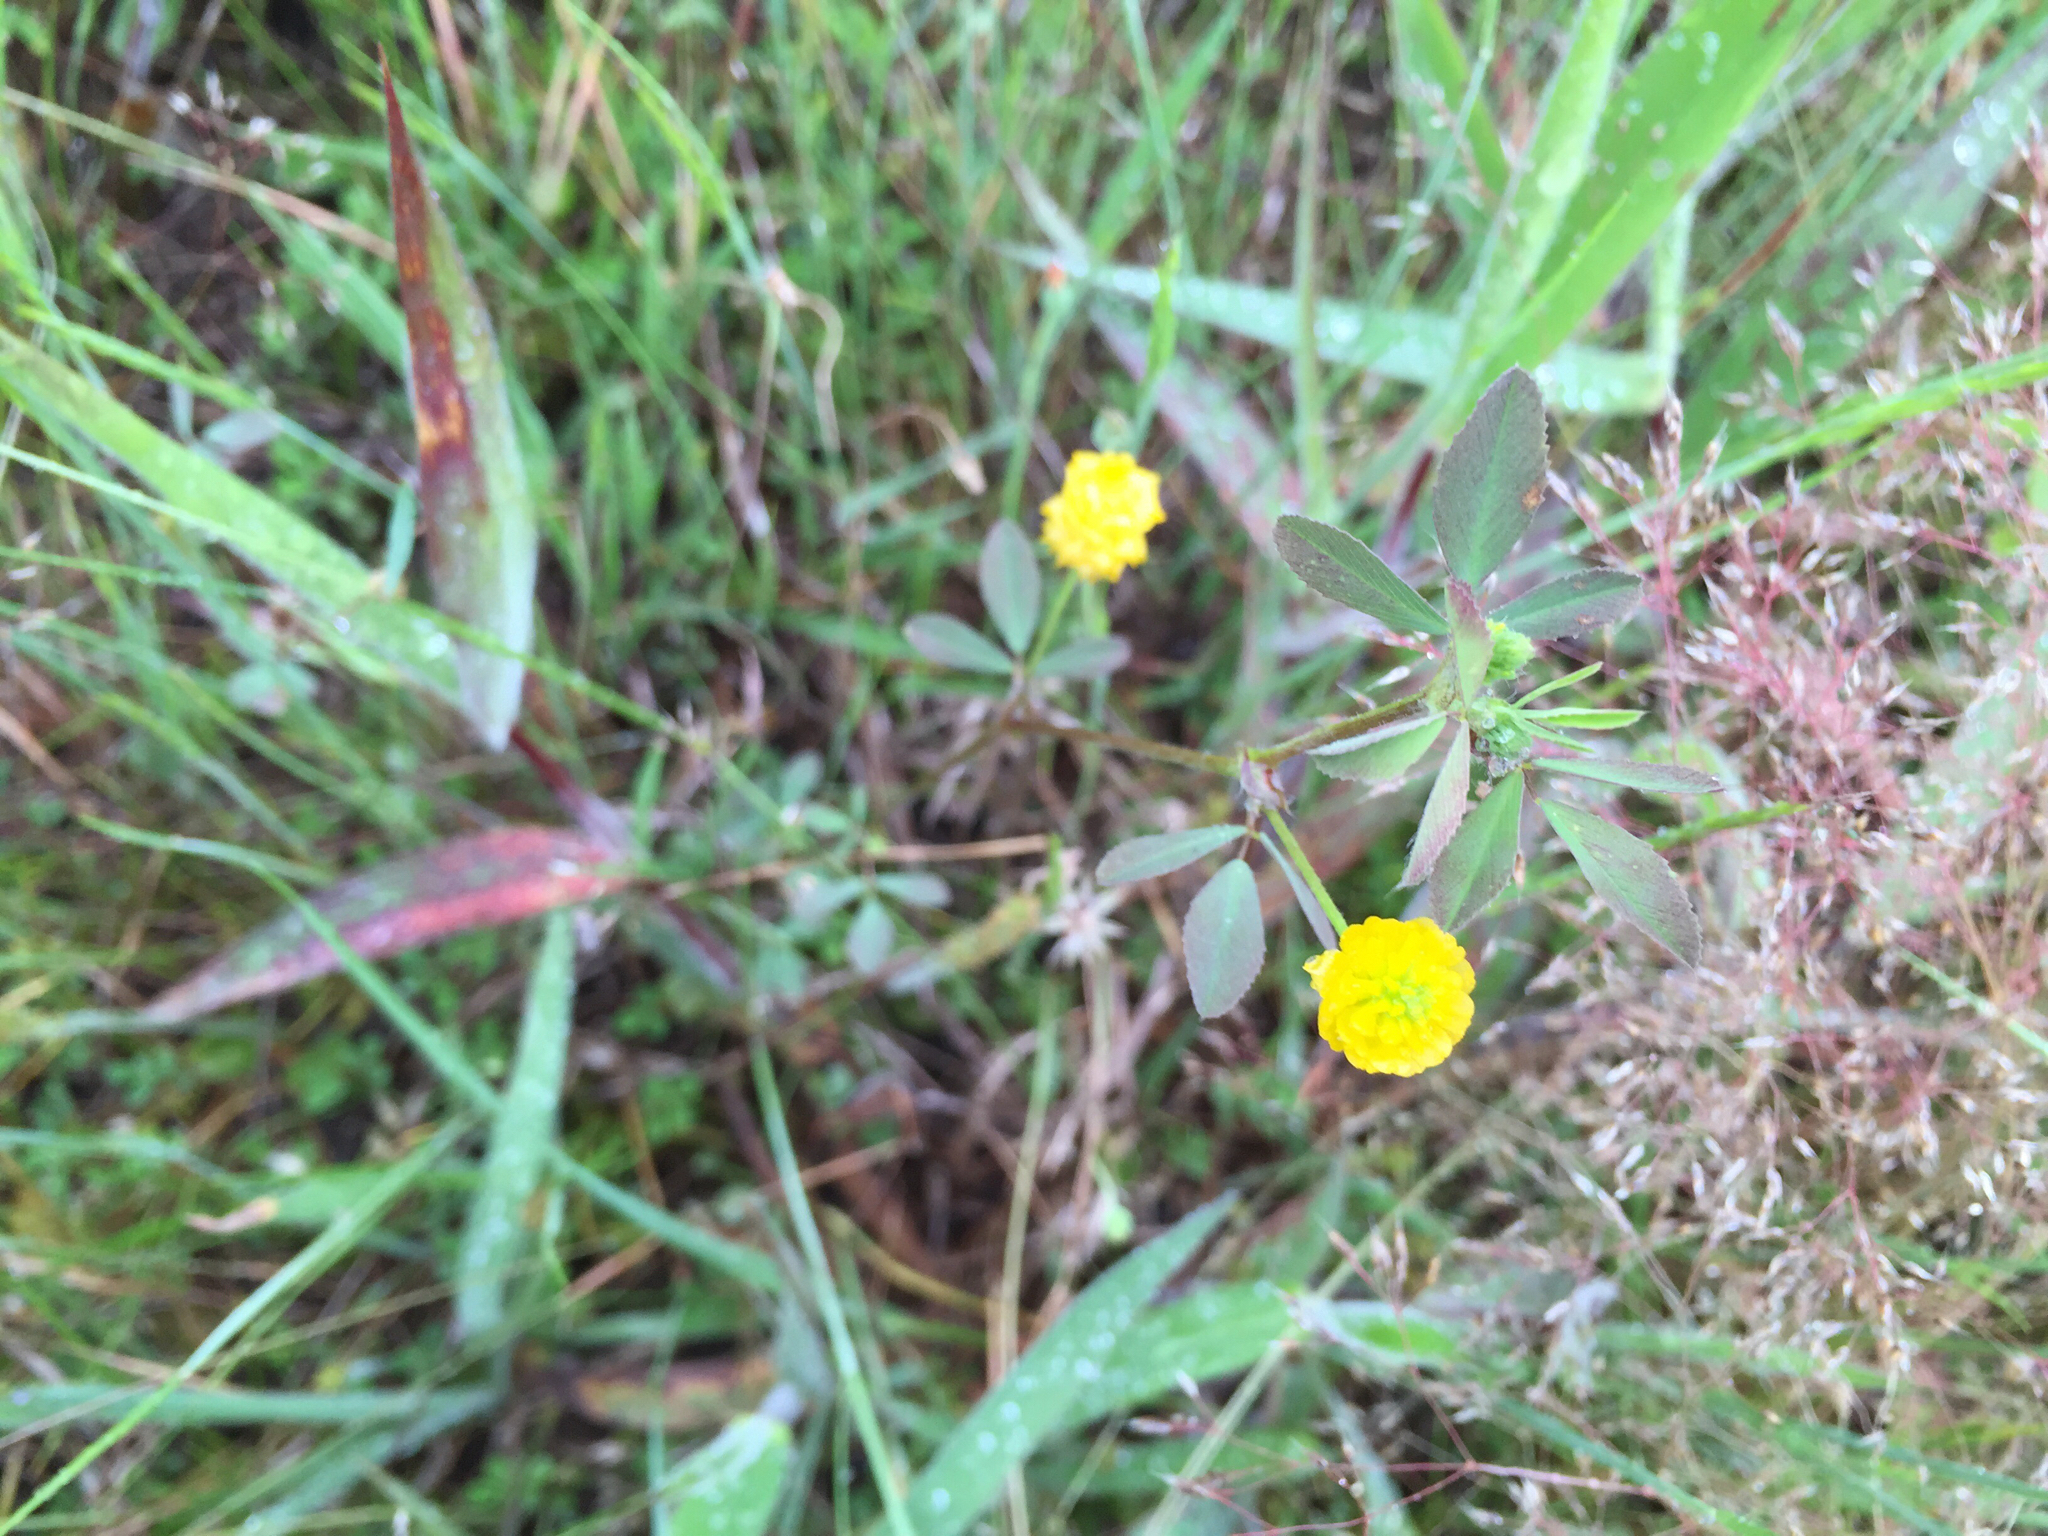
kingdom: Plantae
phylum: Tracheophyta
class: Magnoliopsida
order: Fabales
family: Fabaceae
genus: Trifolium
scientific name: Trifolium campestre
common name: Field clover
